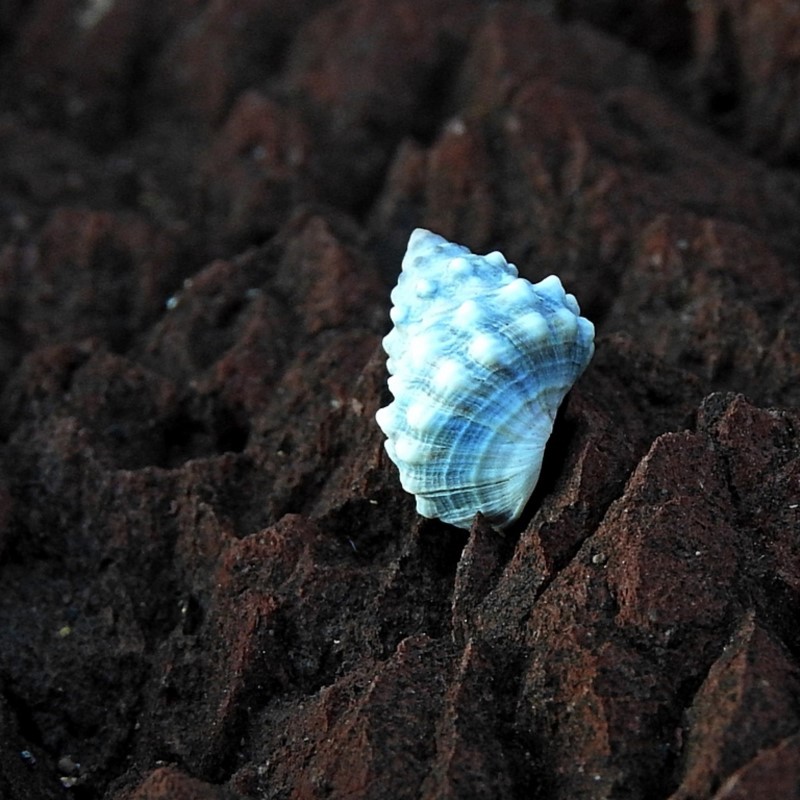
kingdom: Animalia
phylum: Mollusca
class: Gastropoda
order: Littorinimorpha
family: Littorinidae
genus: Nodilittorina
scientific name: Nodilittorina pyramidalis
